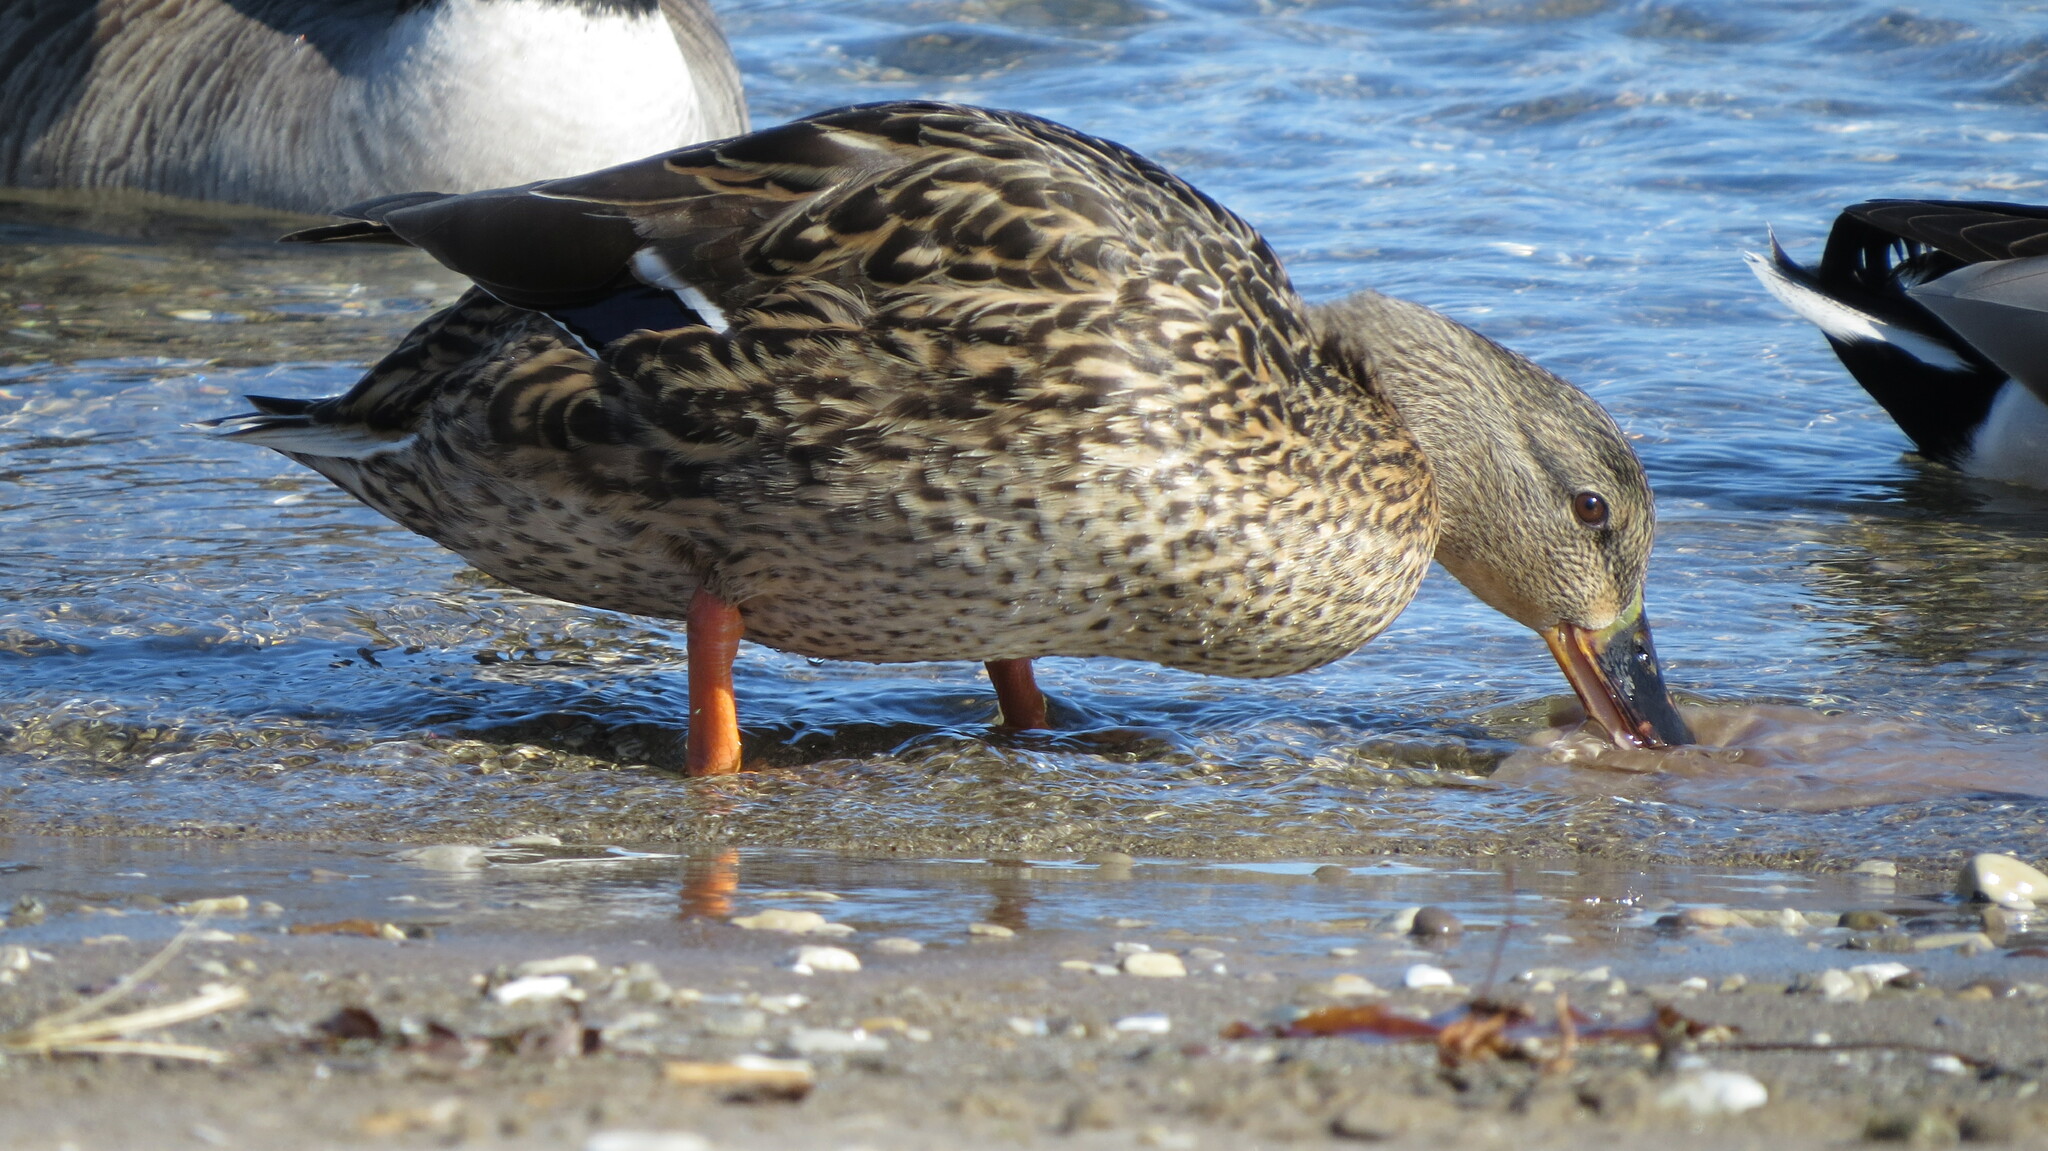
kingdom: Animalia
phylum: Chordata
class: Aves
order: Anseriformes
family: Anatidae
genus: Anas
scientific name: Anas platyrhynchos
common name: Mallard
